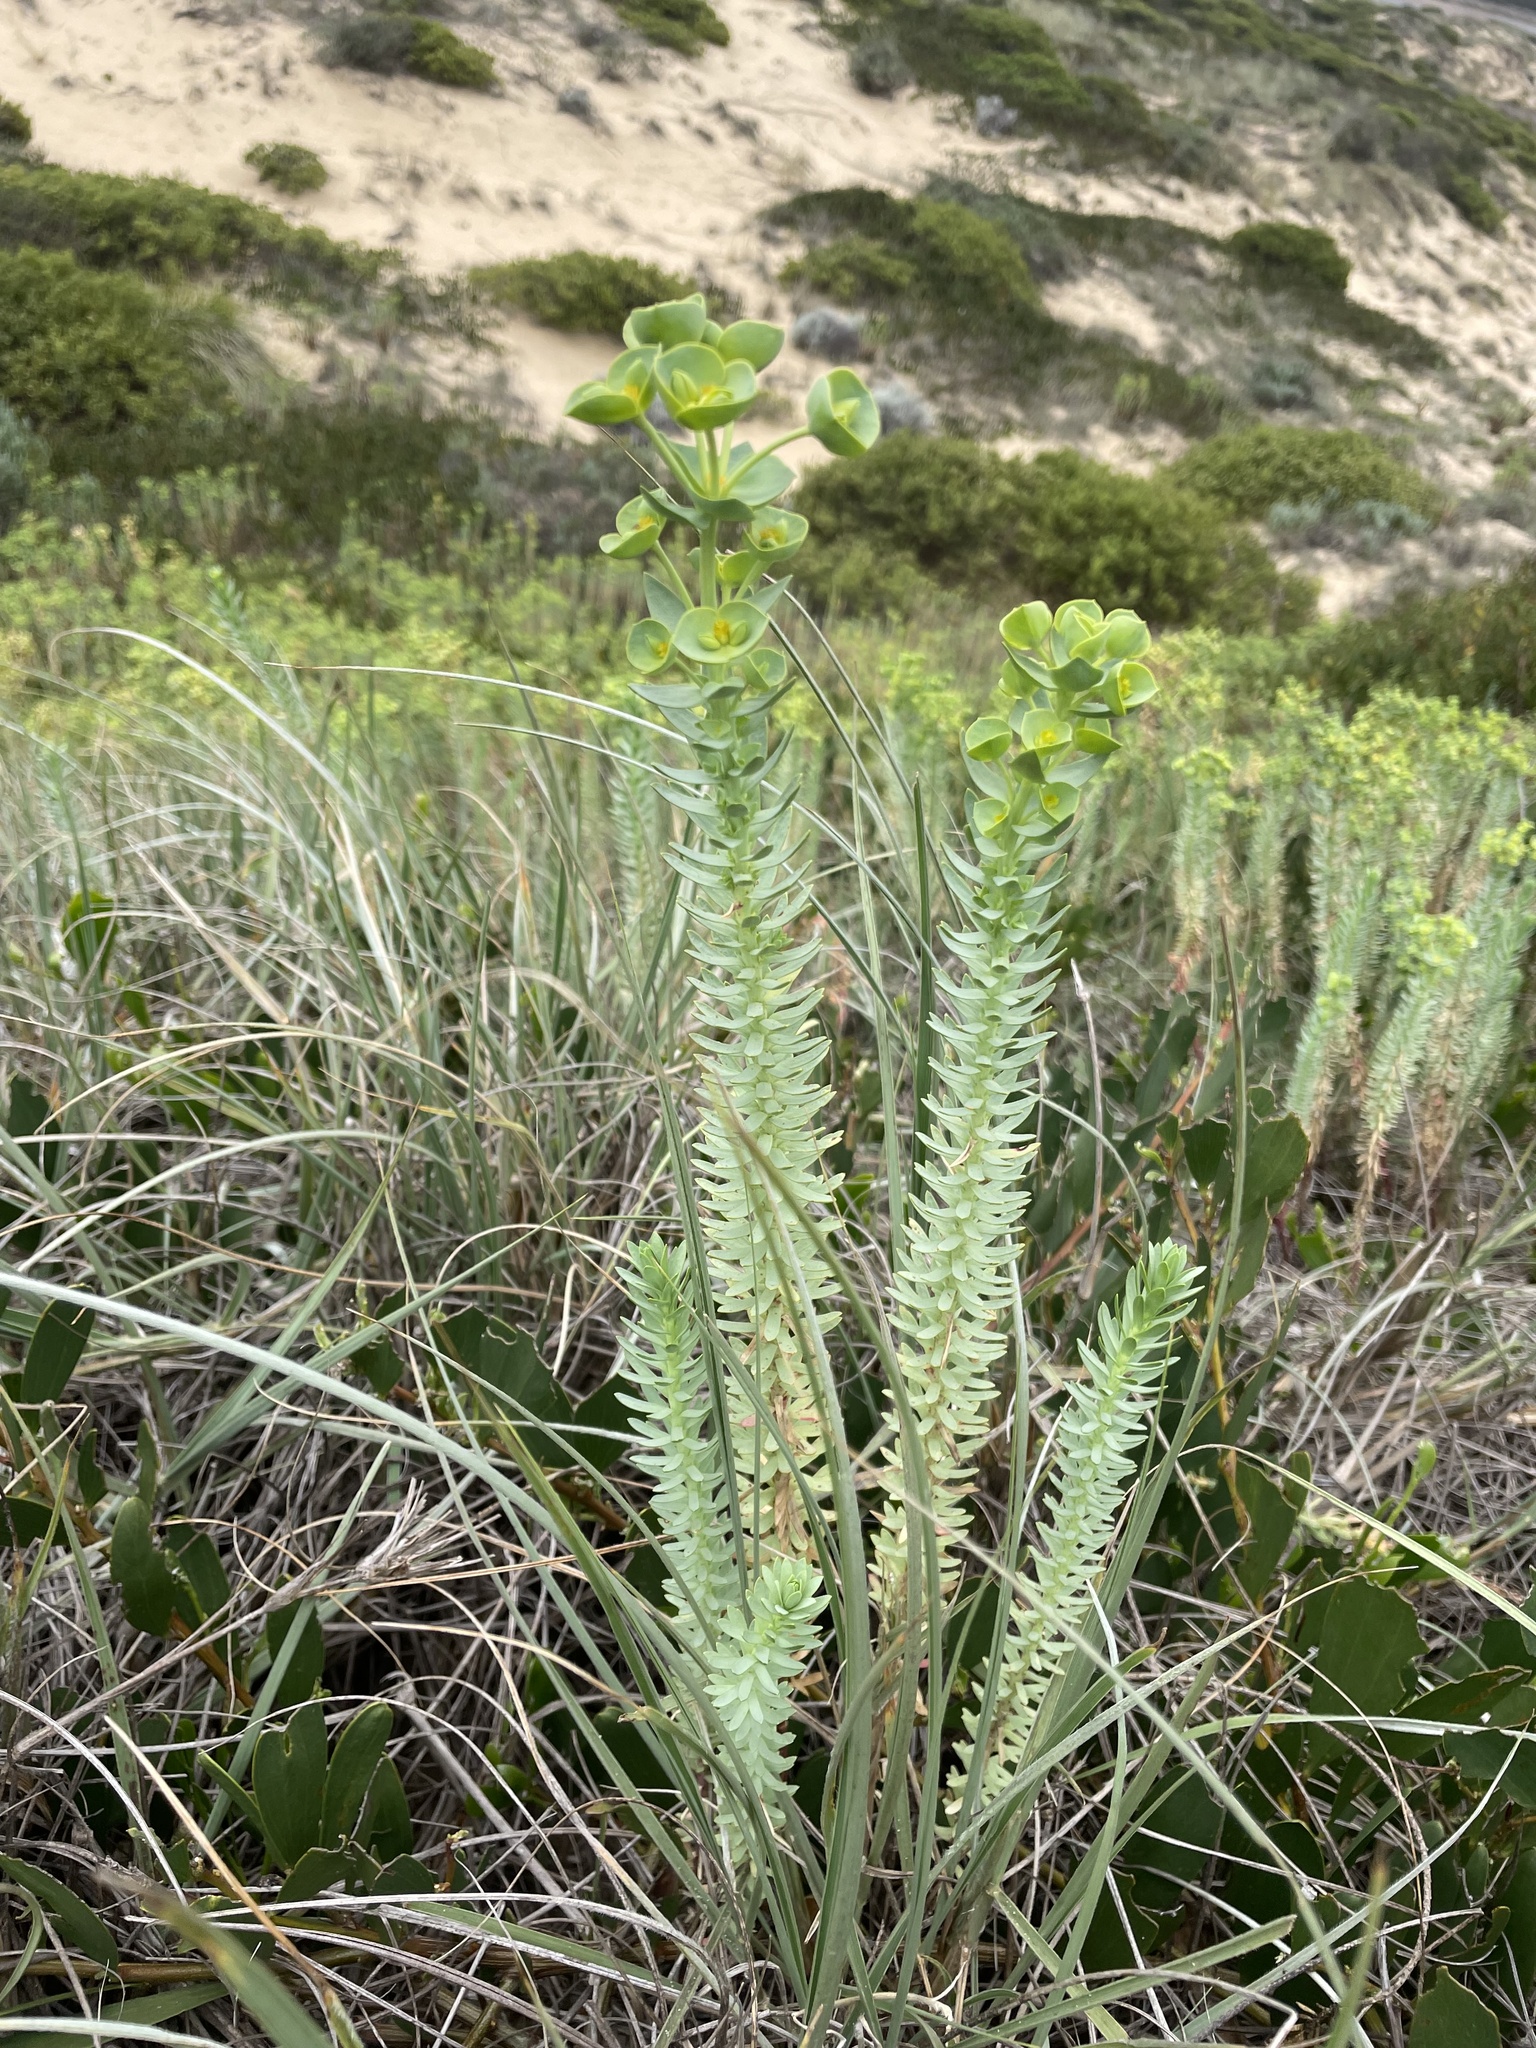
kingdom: Plantae
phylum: Tracheophyta
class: Magnoliopsida
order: Malpighiales
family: Euphorbiaceae
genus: Euphorbia
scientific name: Euphorbia paralias
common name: Sea spurge
